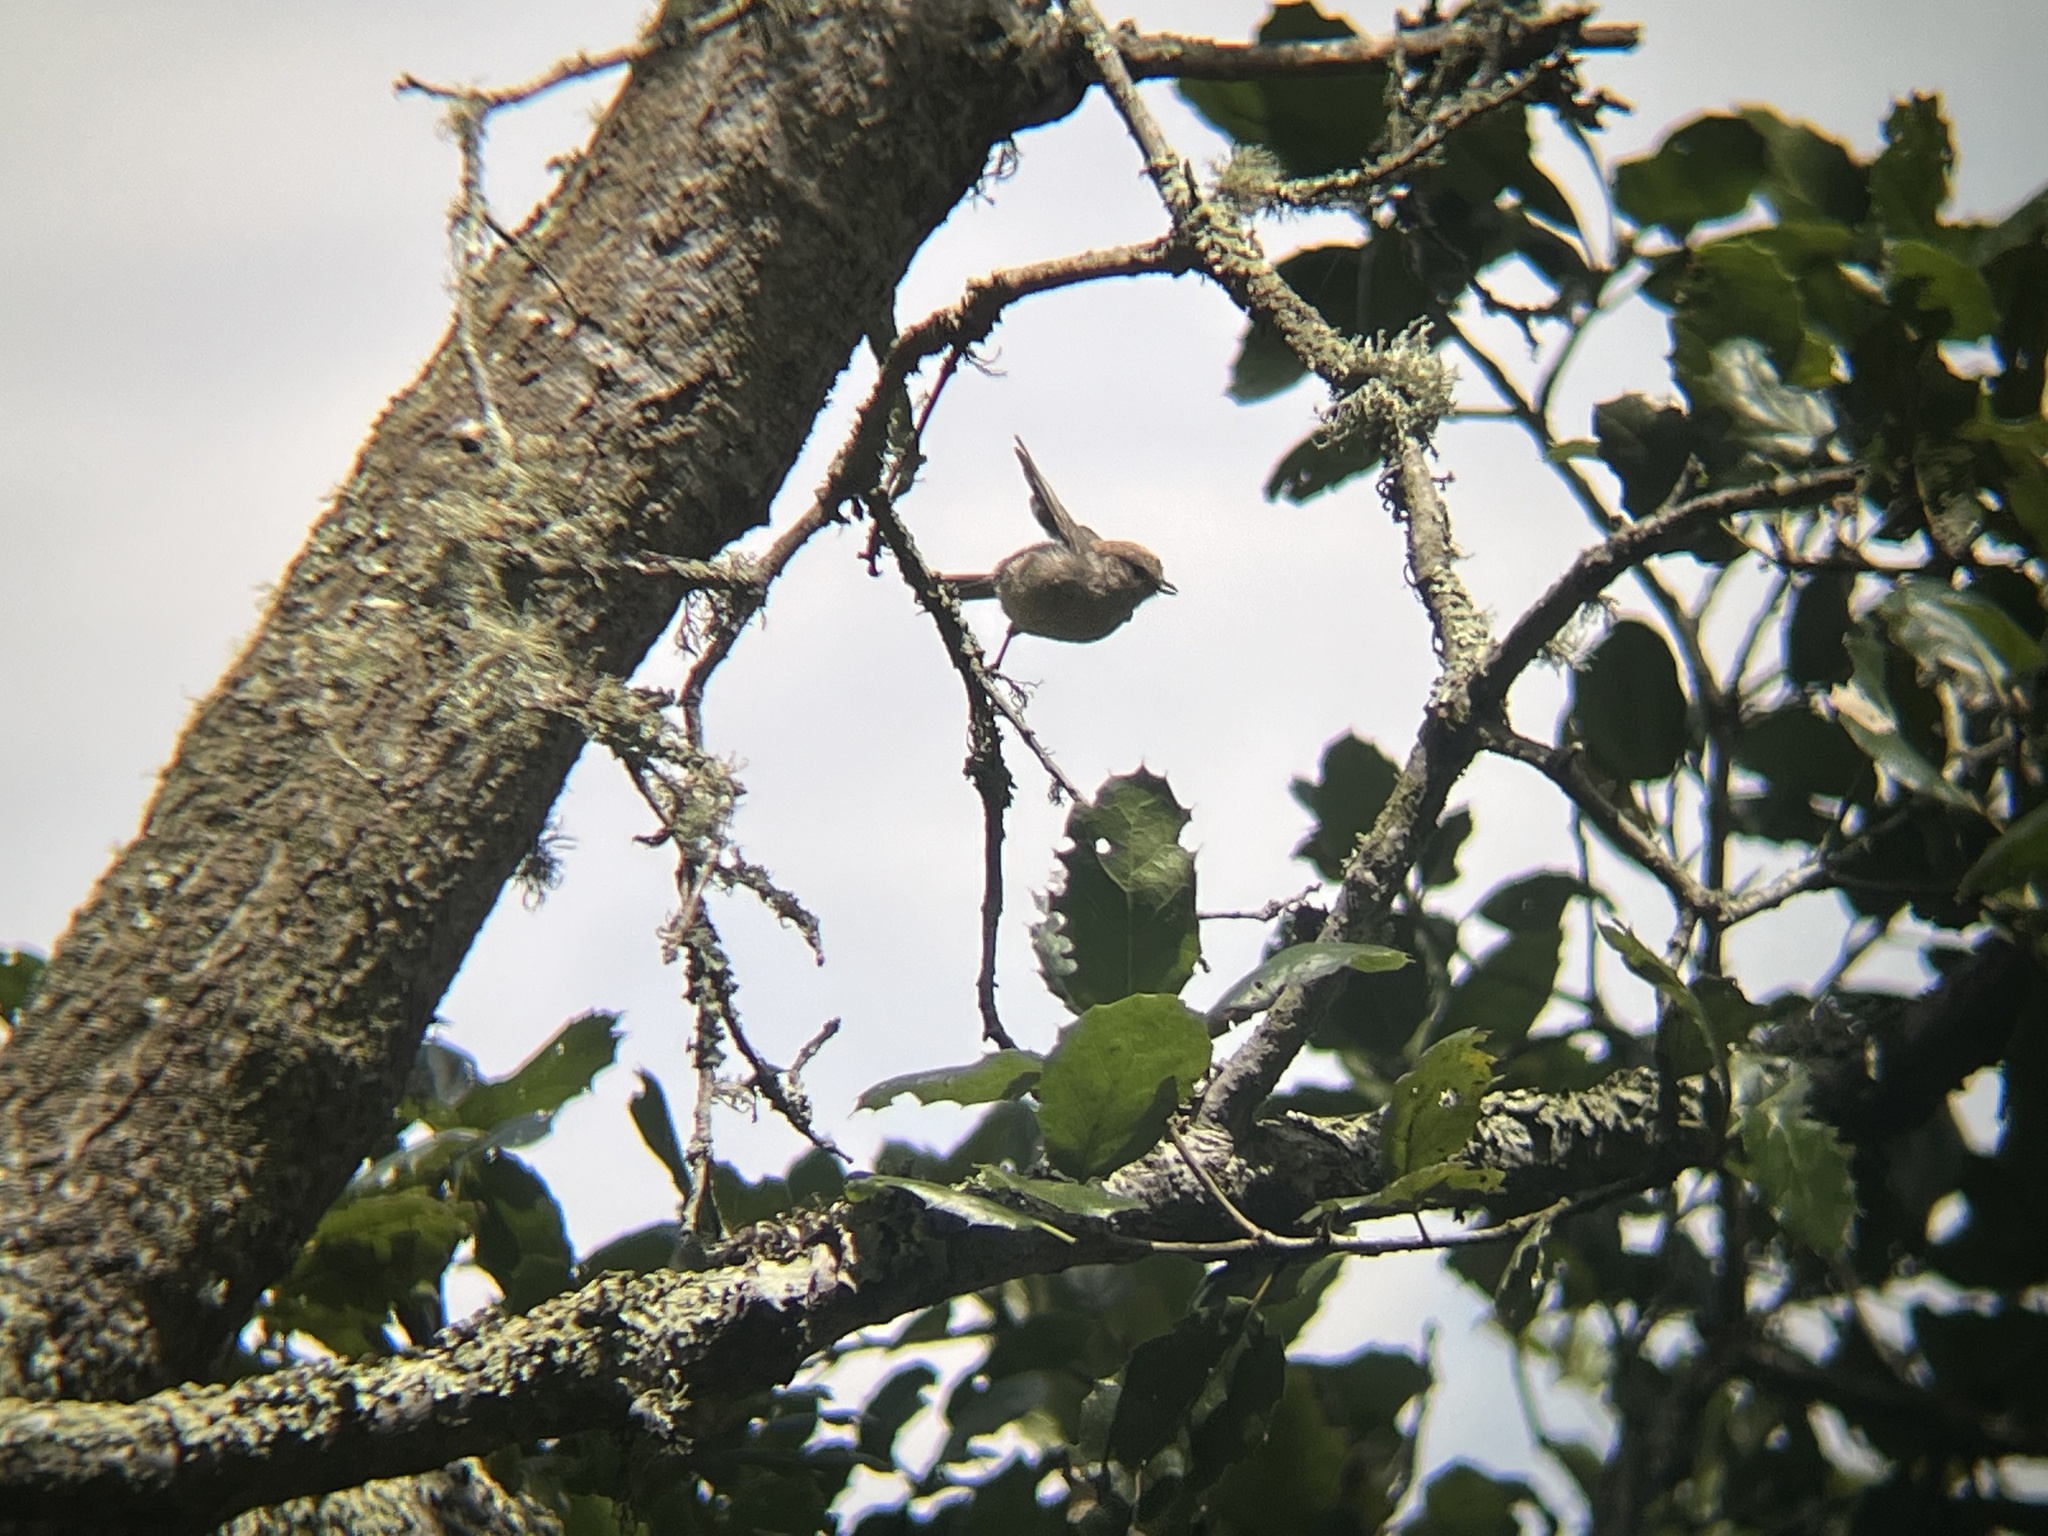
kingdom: Animalia
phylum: Chordata
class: Aves
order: Passeriformes
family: Aegithalidae
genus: Psaltriparus
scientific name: Psaltriparus minimus
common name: American bushtit
